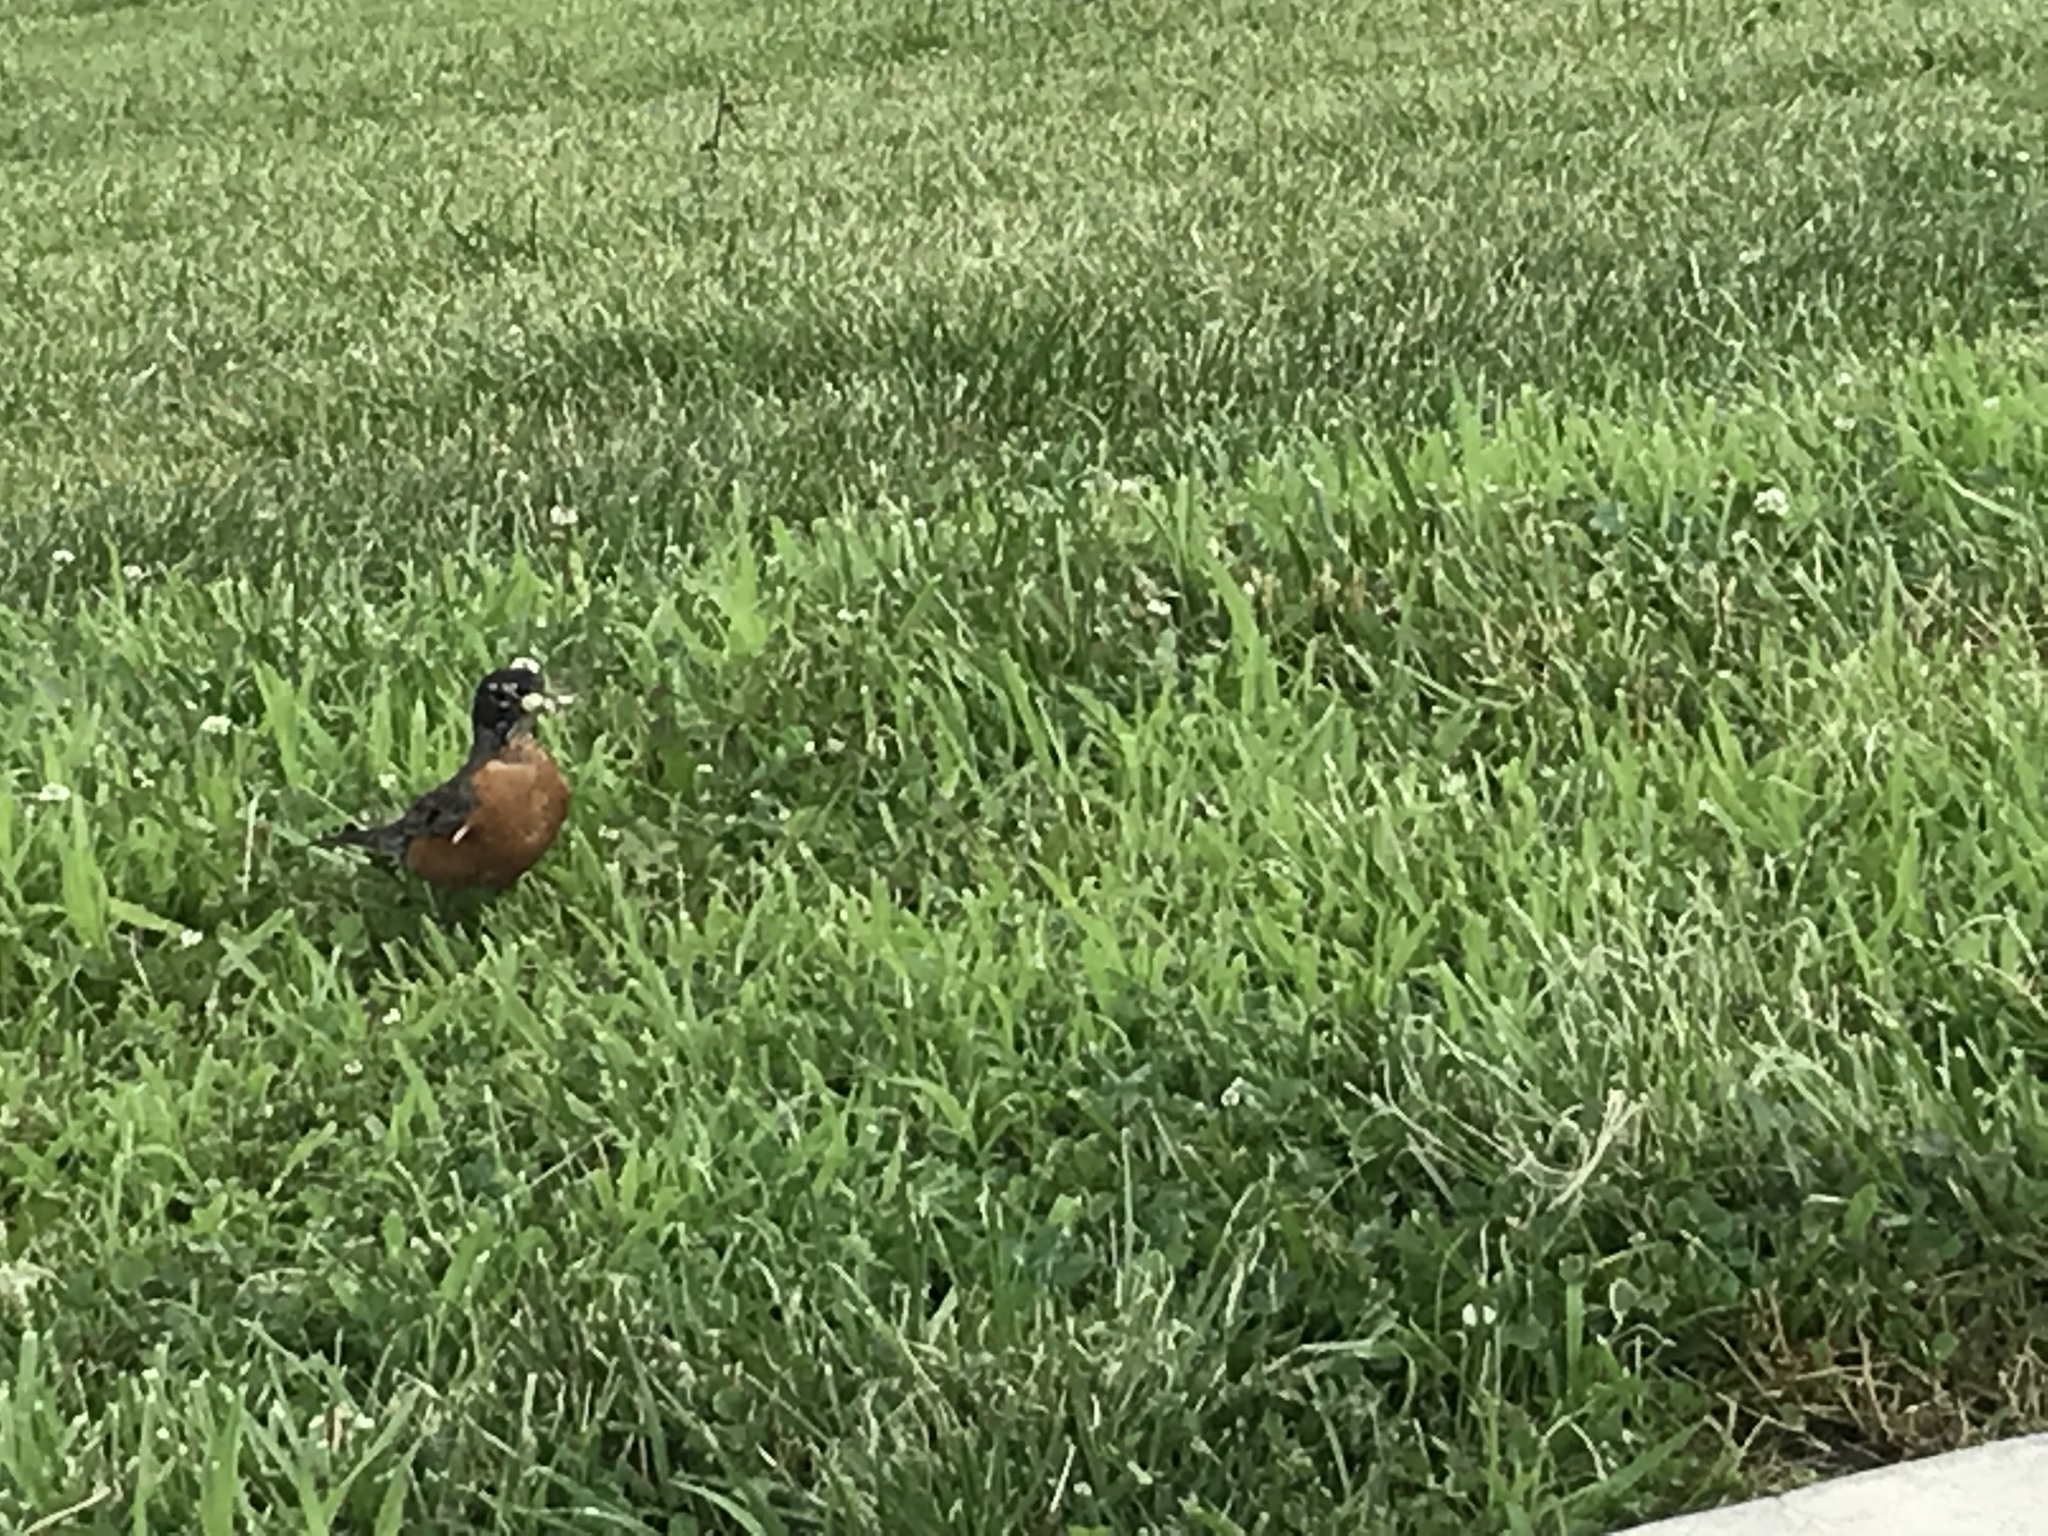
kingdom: Animalia
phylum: Chordata
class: Aves
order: Passeriformes
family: Turdidae
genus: Turdus
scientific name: Turdus migratorius
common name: American robin
